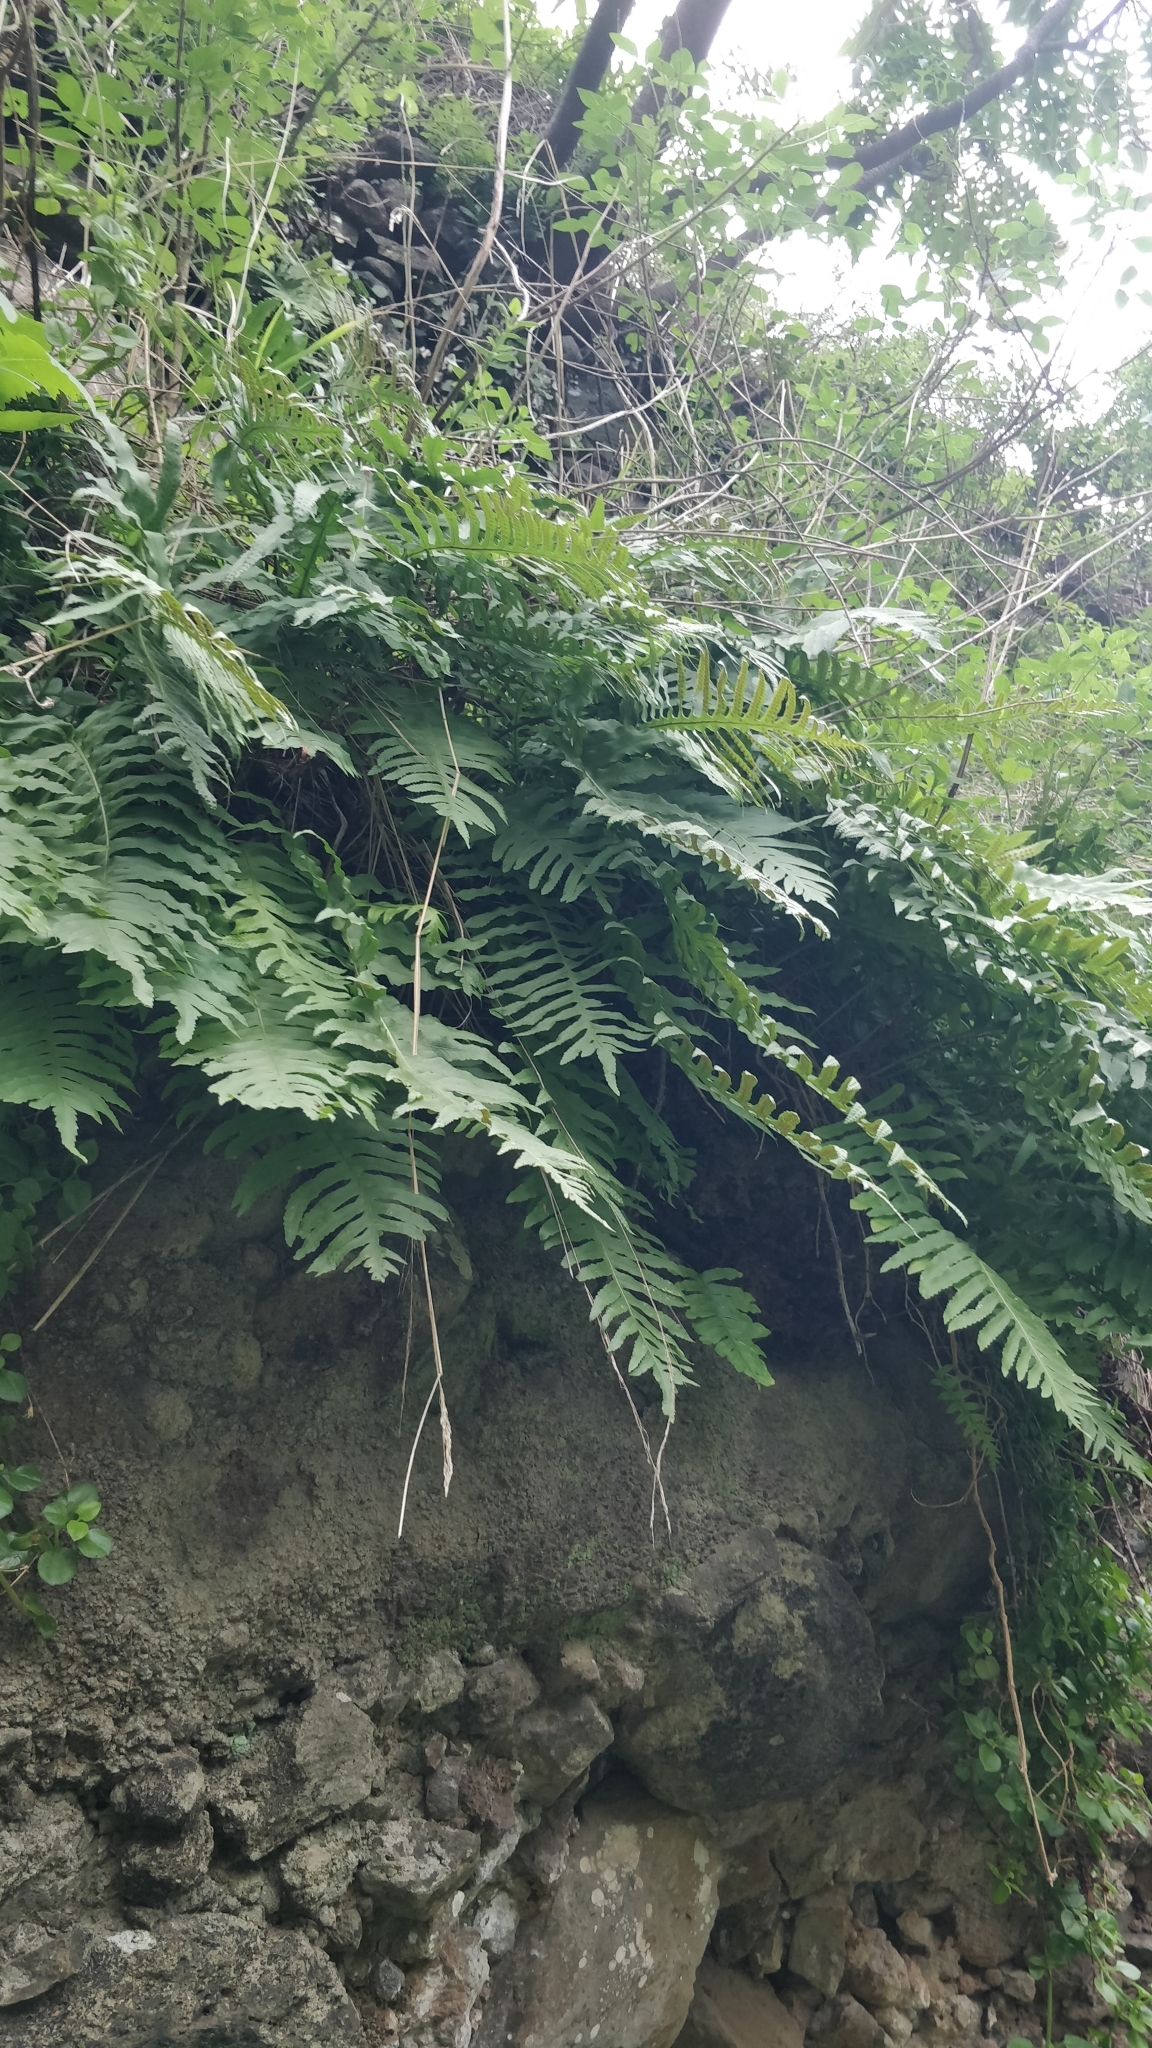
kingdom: Plantae
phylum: Tracheophyta
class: Polypodiopsida
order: Polypodiales
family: Polypodiaceae
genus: Polypodium
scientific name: Polypodium macaronesicum
